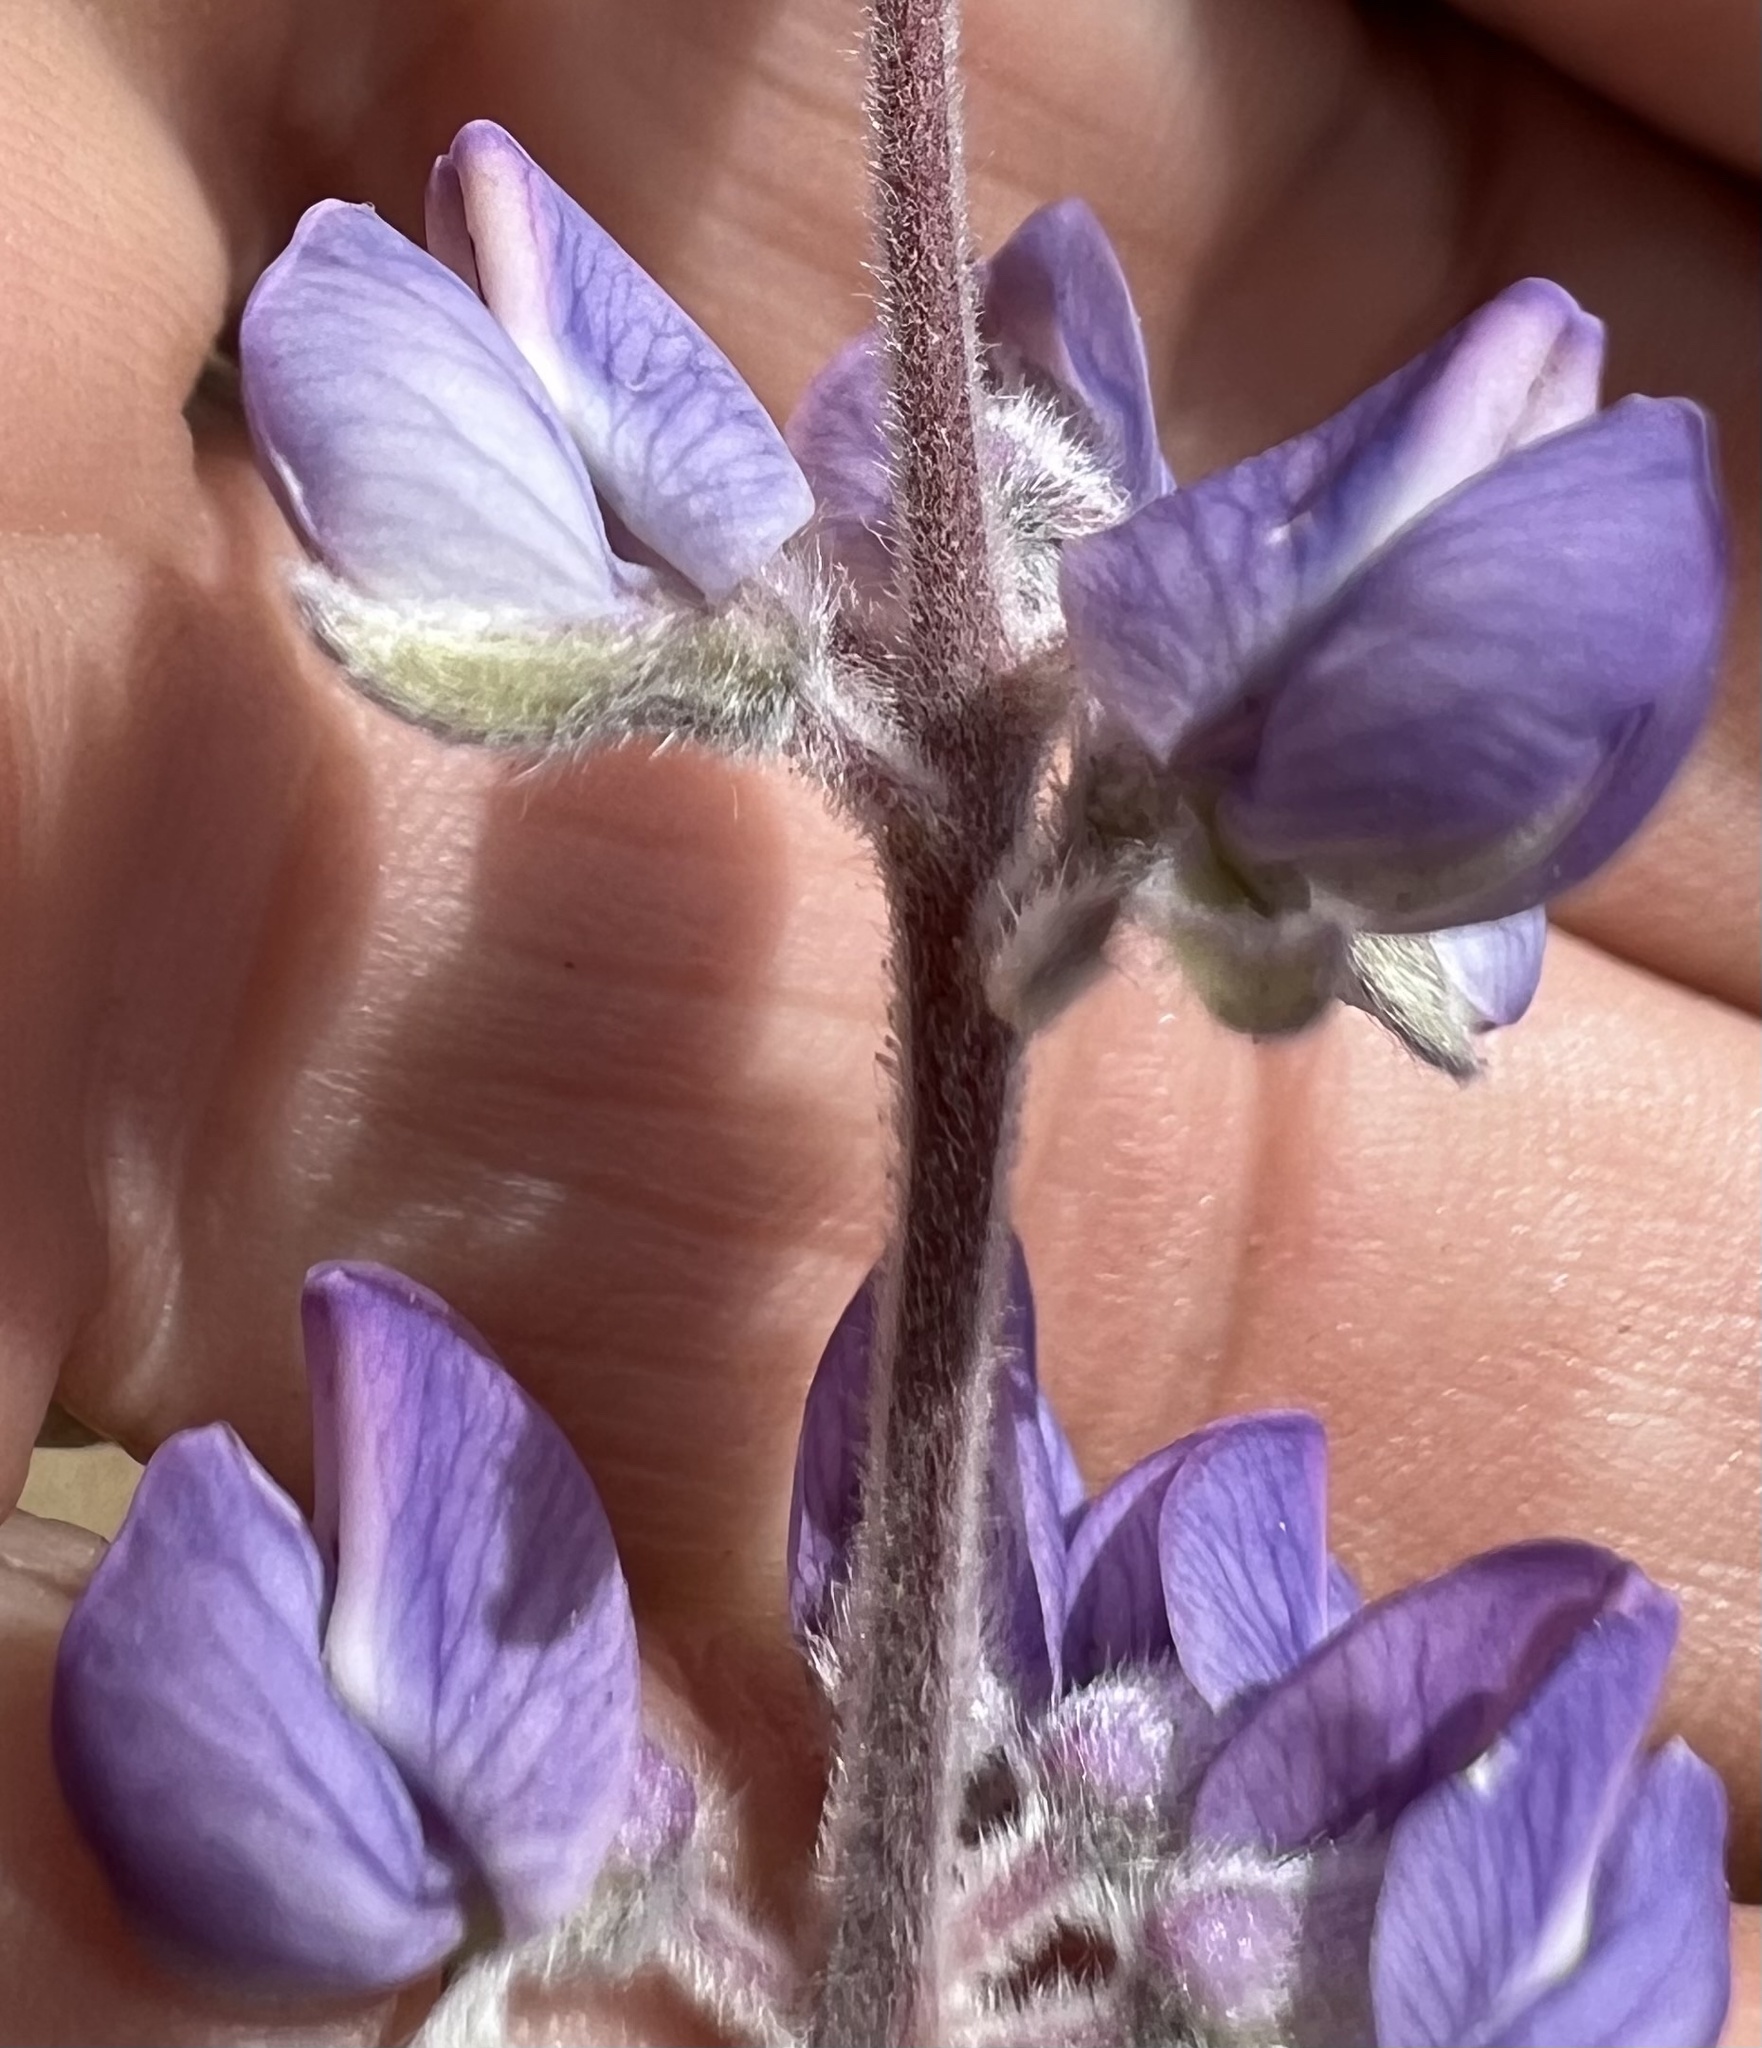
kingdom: Plantae
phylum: Tracheophyta
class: Magnoliopsida
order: Fabales
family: Fabaceae
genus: Lupinus
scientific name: Lupinus argenteus
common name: Silvery lupine
